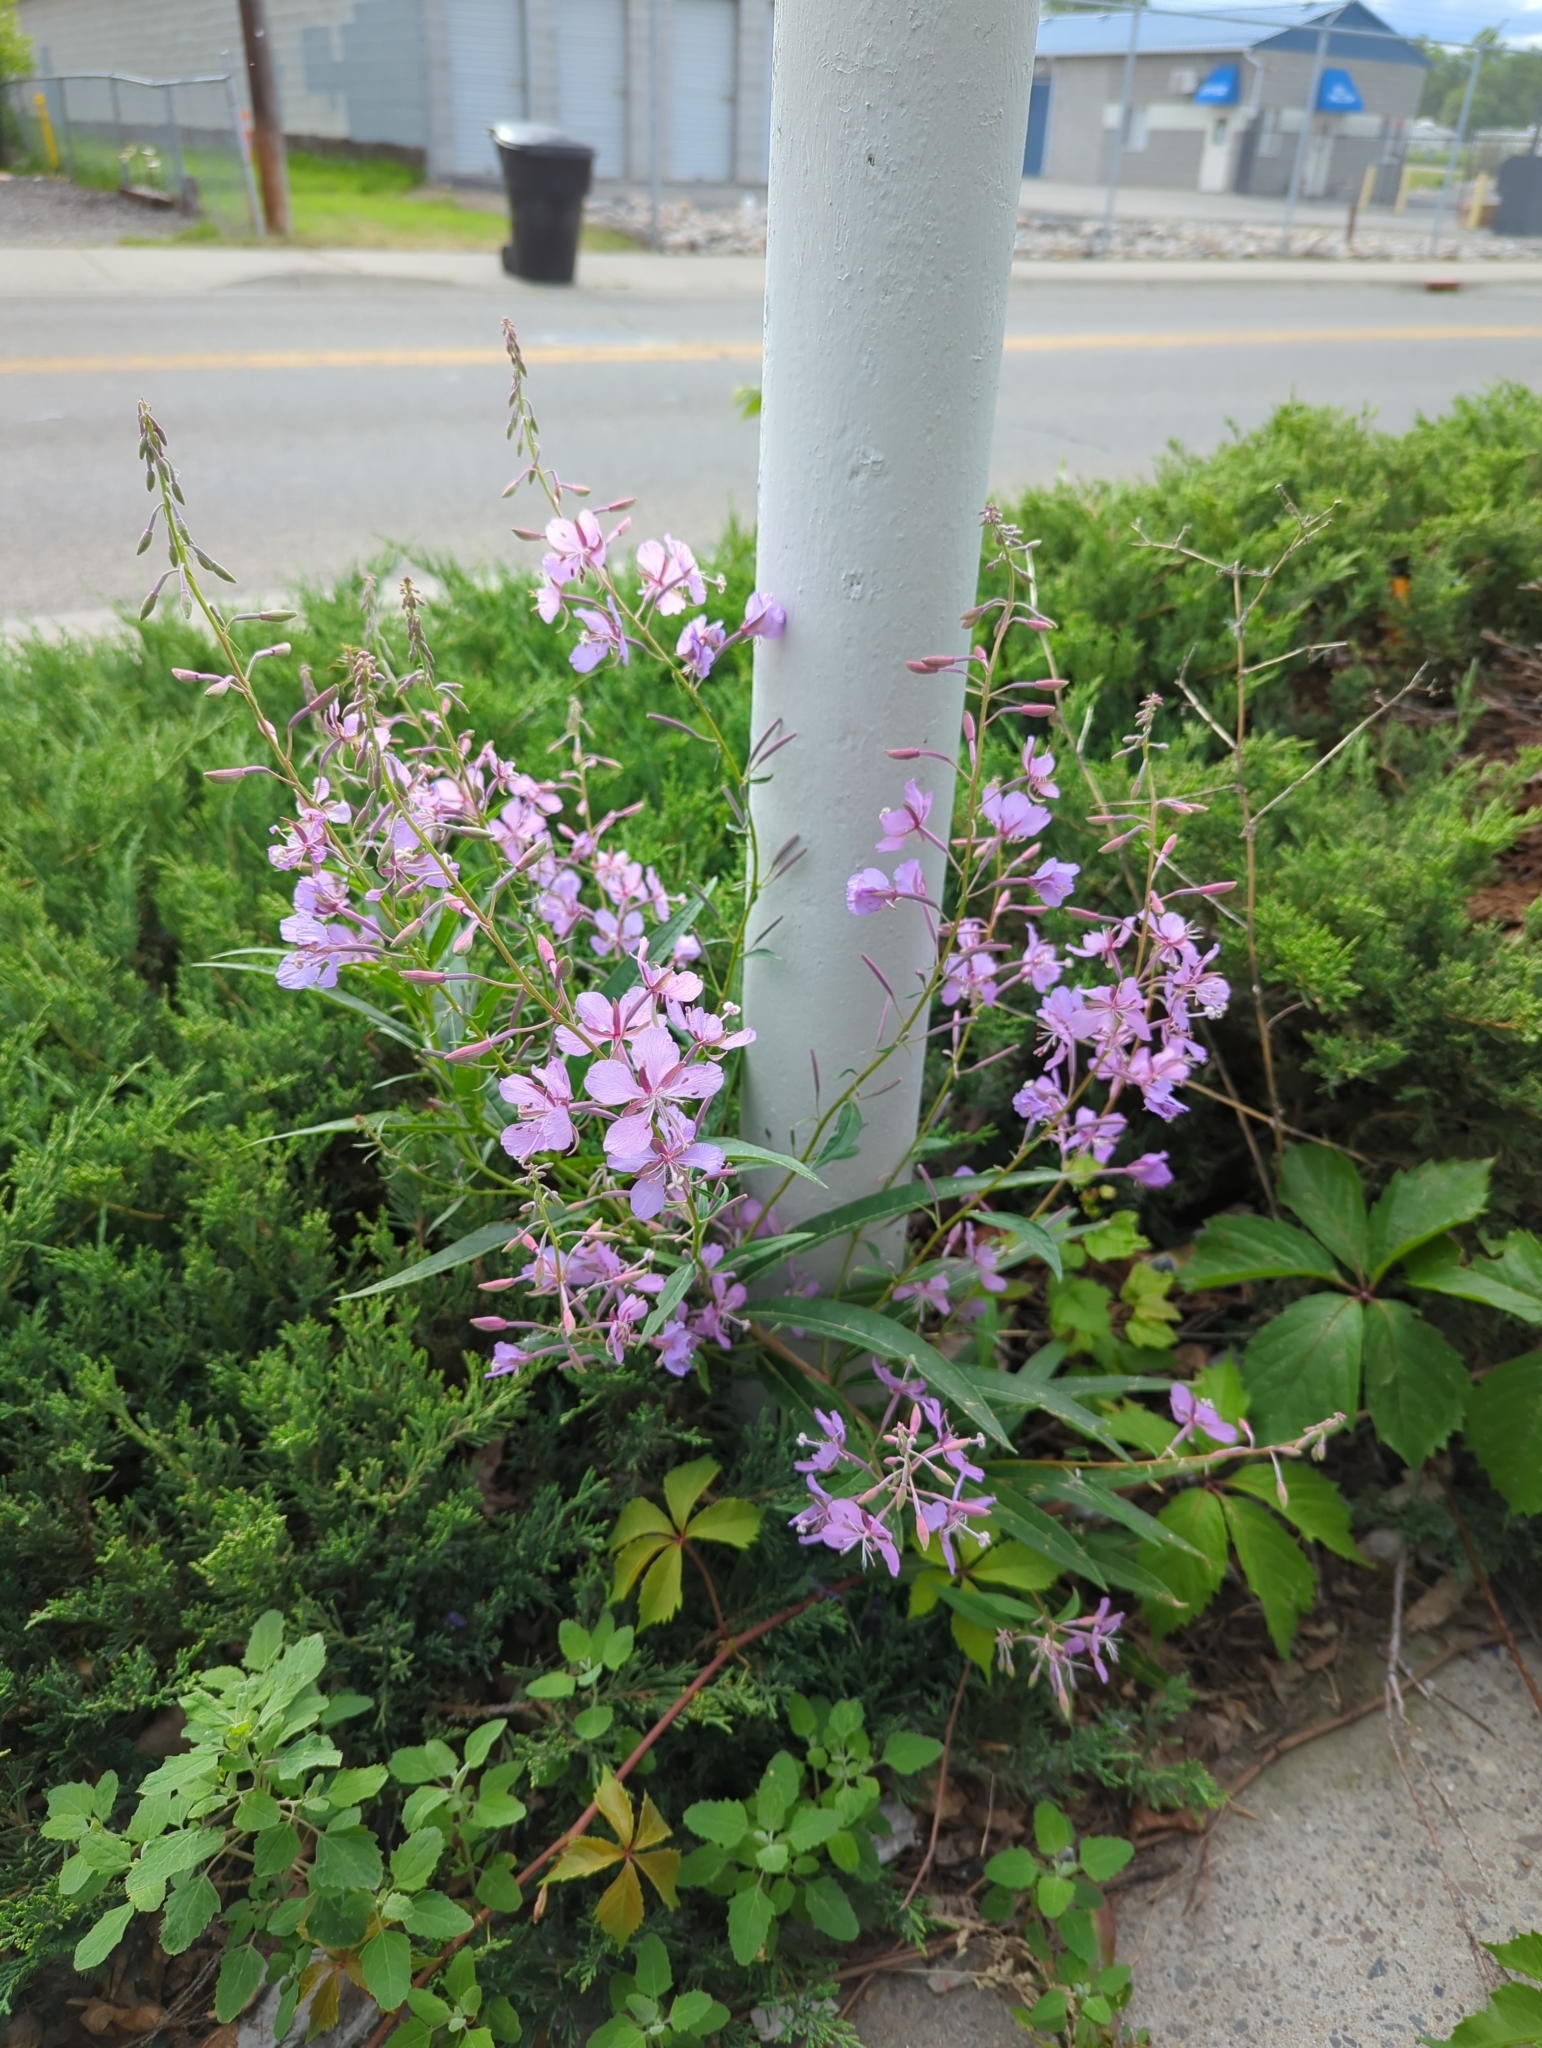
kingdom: Plantae
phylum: Tracheophyta
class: Magnoliopsida
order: Myrtales
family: Onagraceae
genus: Chamaenerion
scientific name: Chamaenerion angustifolium
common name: Fireweed
